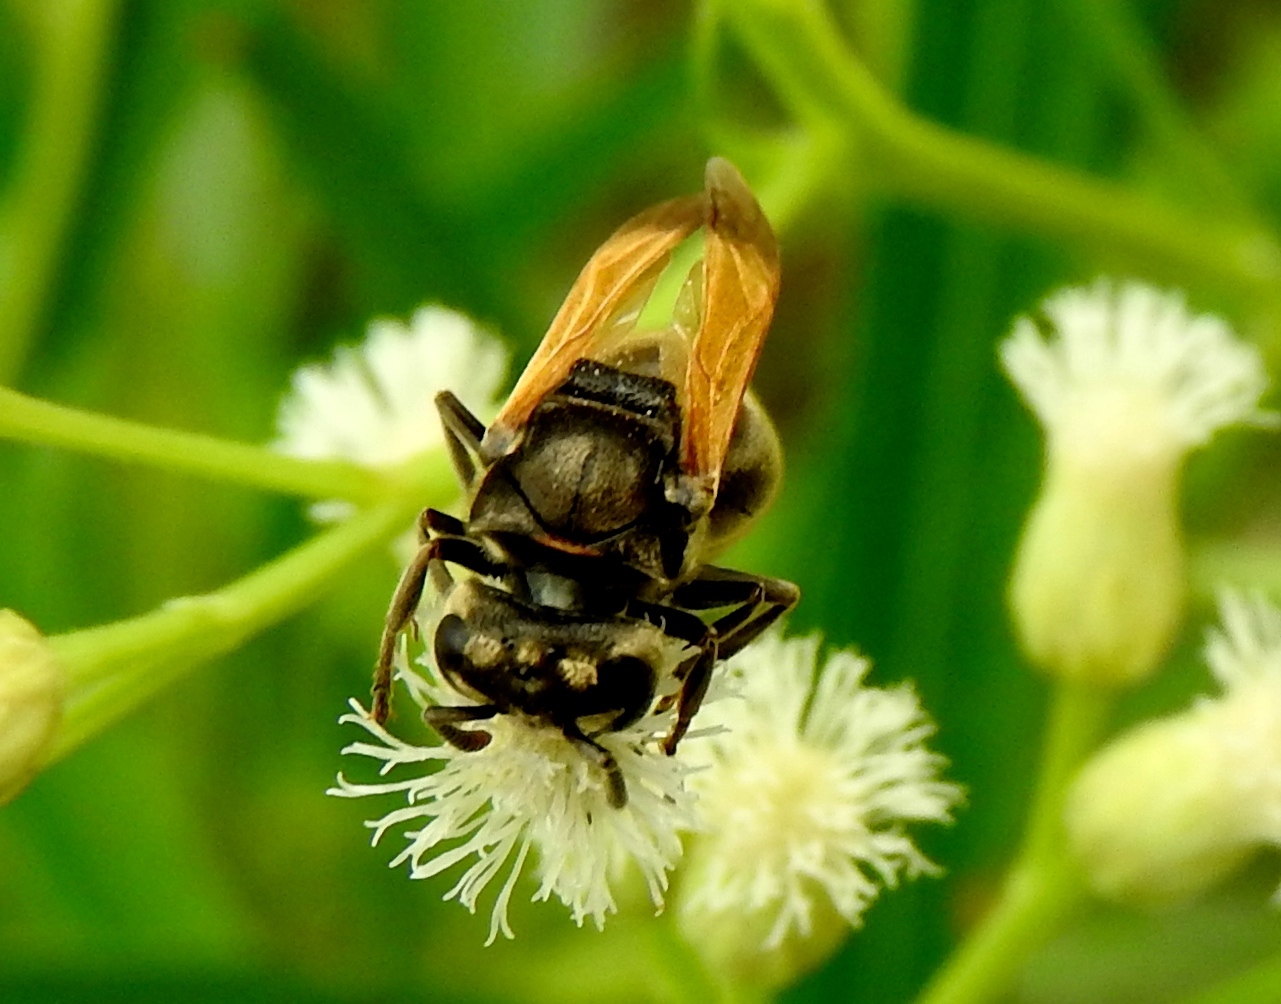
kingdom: Animalia
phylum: Arthropoda
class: Insecta
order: Hymenoptera
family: Vespidae
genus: Brachygastra
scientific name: Brachygastra mellifica
